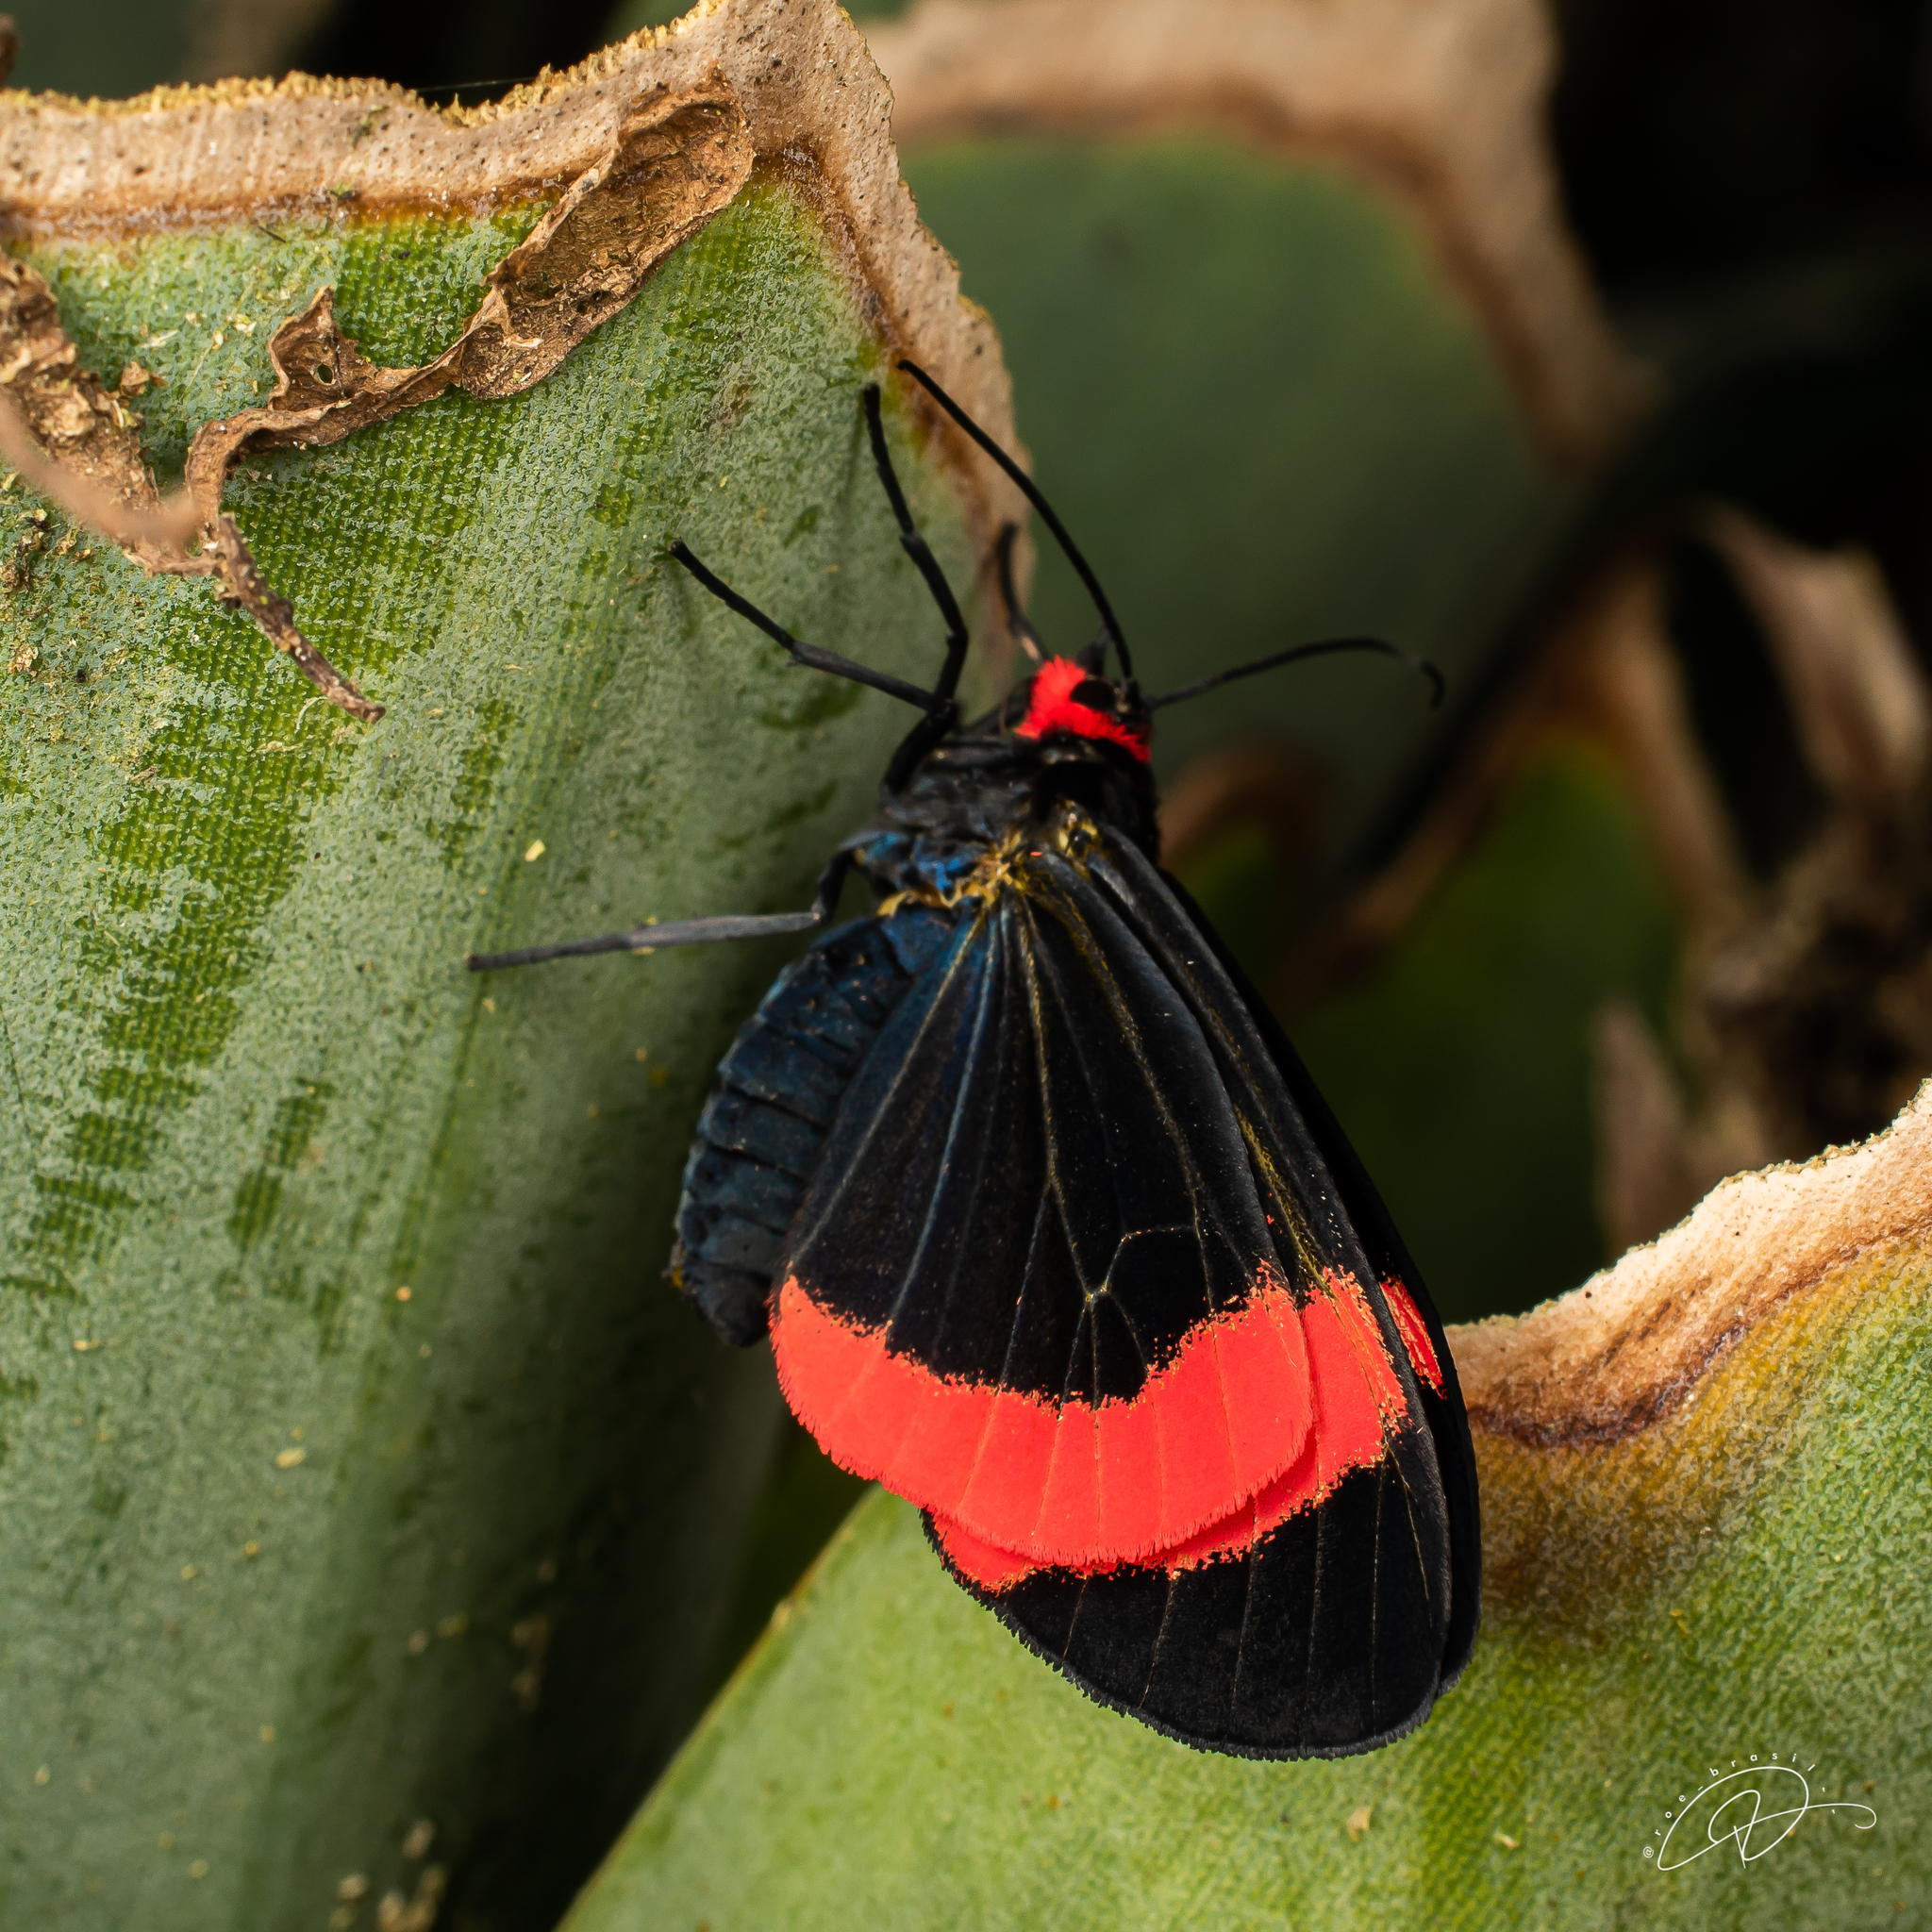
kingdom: Animalia
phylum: Arthropoda
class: Insecta
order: Lepidoptera
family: Erebidae
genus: Coreura
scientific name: Coreura fida
